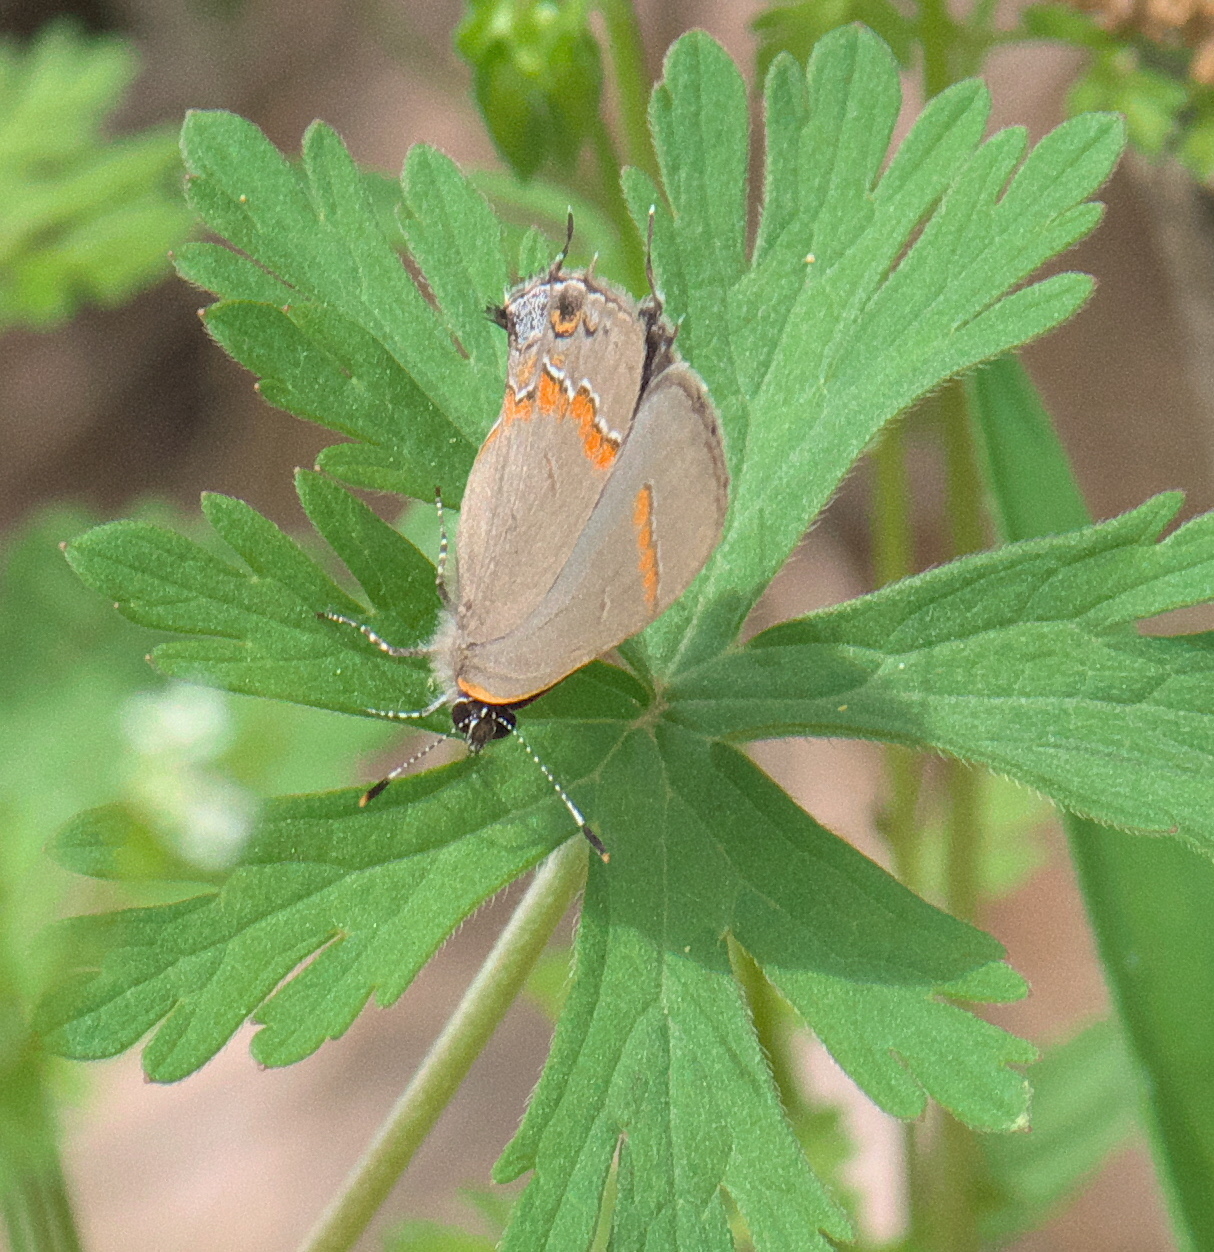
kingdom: Animalia
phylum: Arthropoda
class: Insecta
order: Lepidoptera
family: Lycaenidae
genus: Calycopis
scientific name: Calycopis cecrops
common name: Red-banded hairstreak
